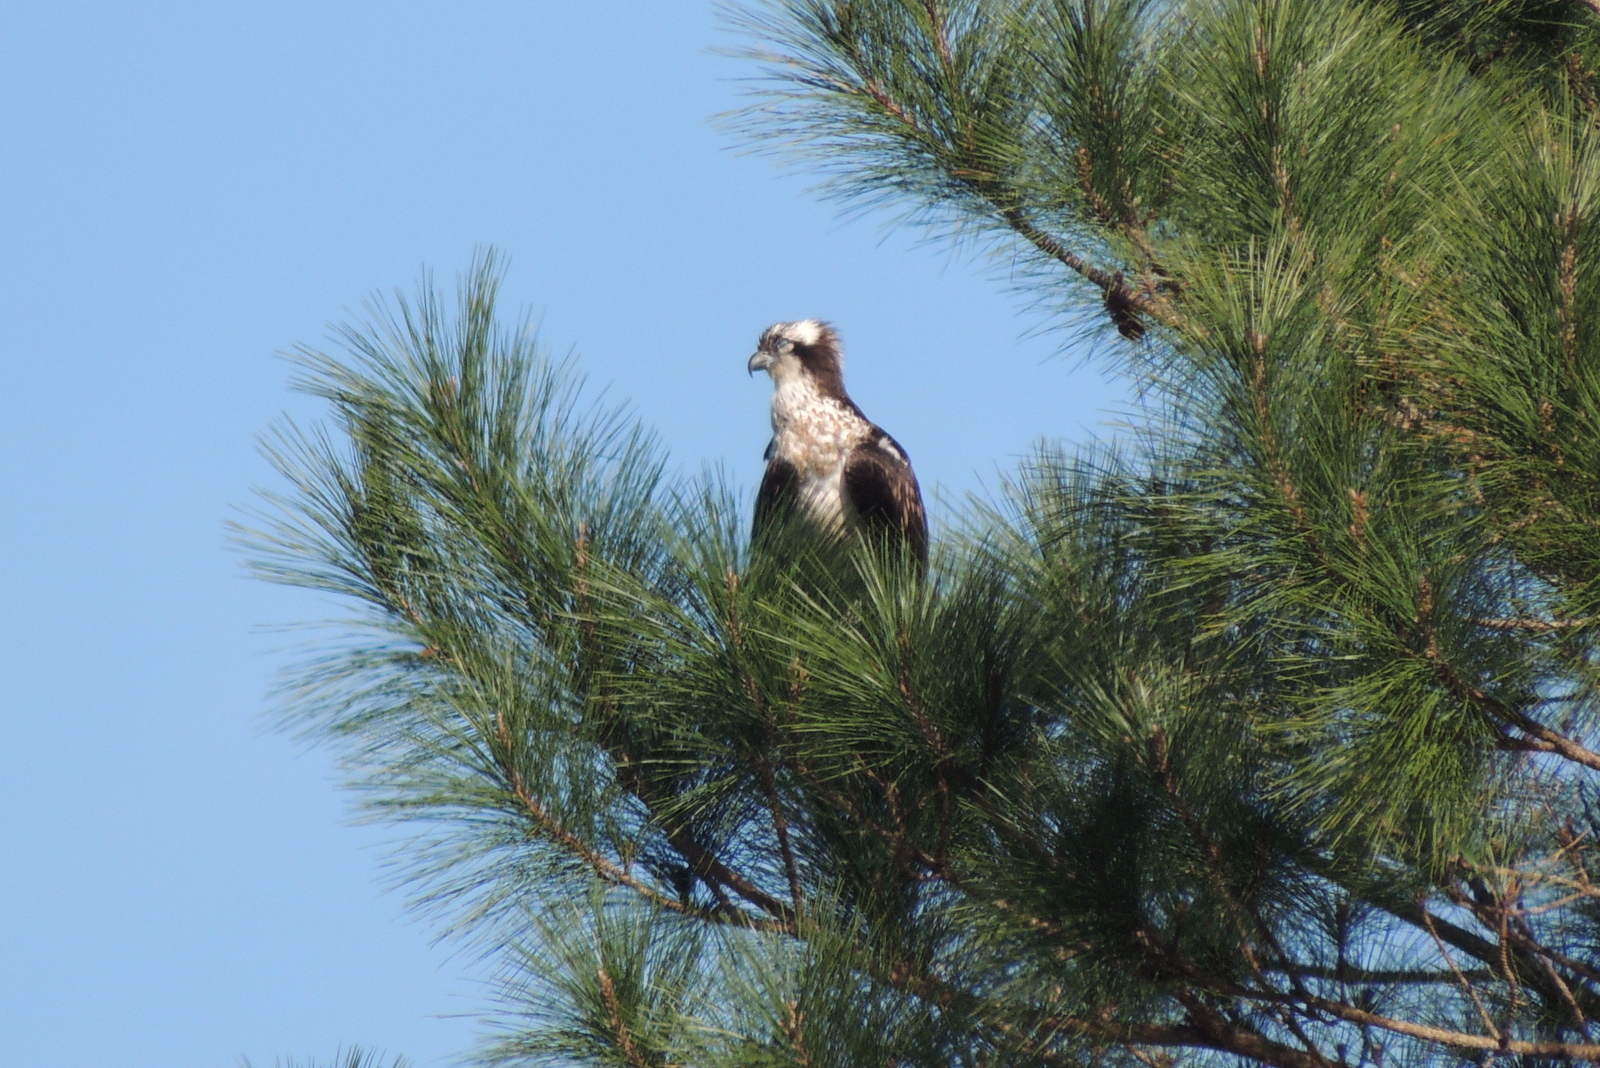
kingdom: Animalia
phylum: Chordata
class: Aves
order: Accipitriformes
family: Pandionidae
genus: Pandion
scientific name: Pandion haliaetus
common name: Osprey
